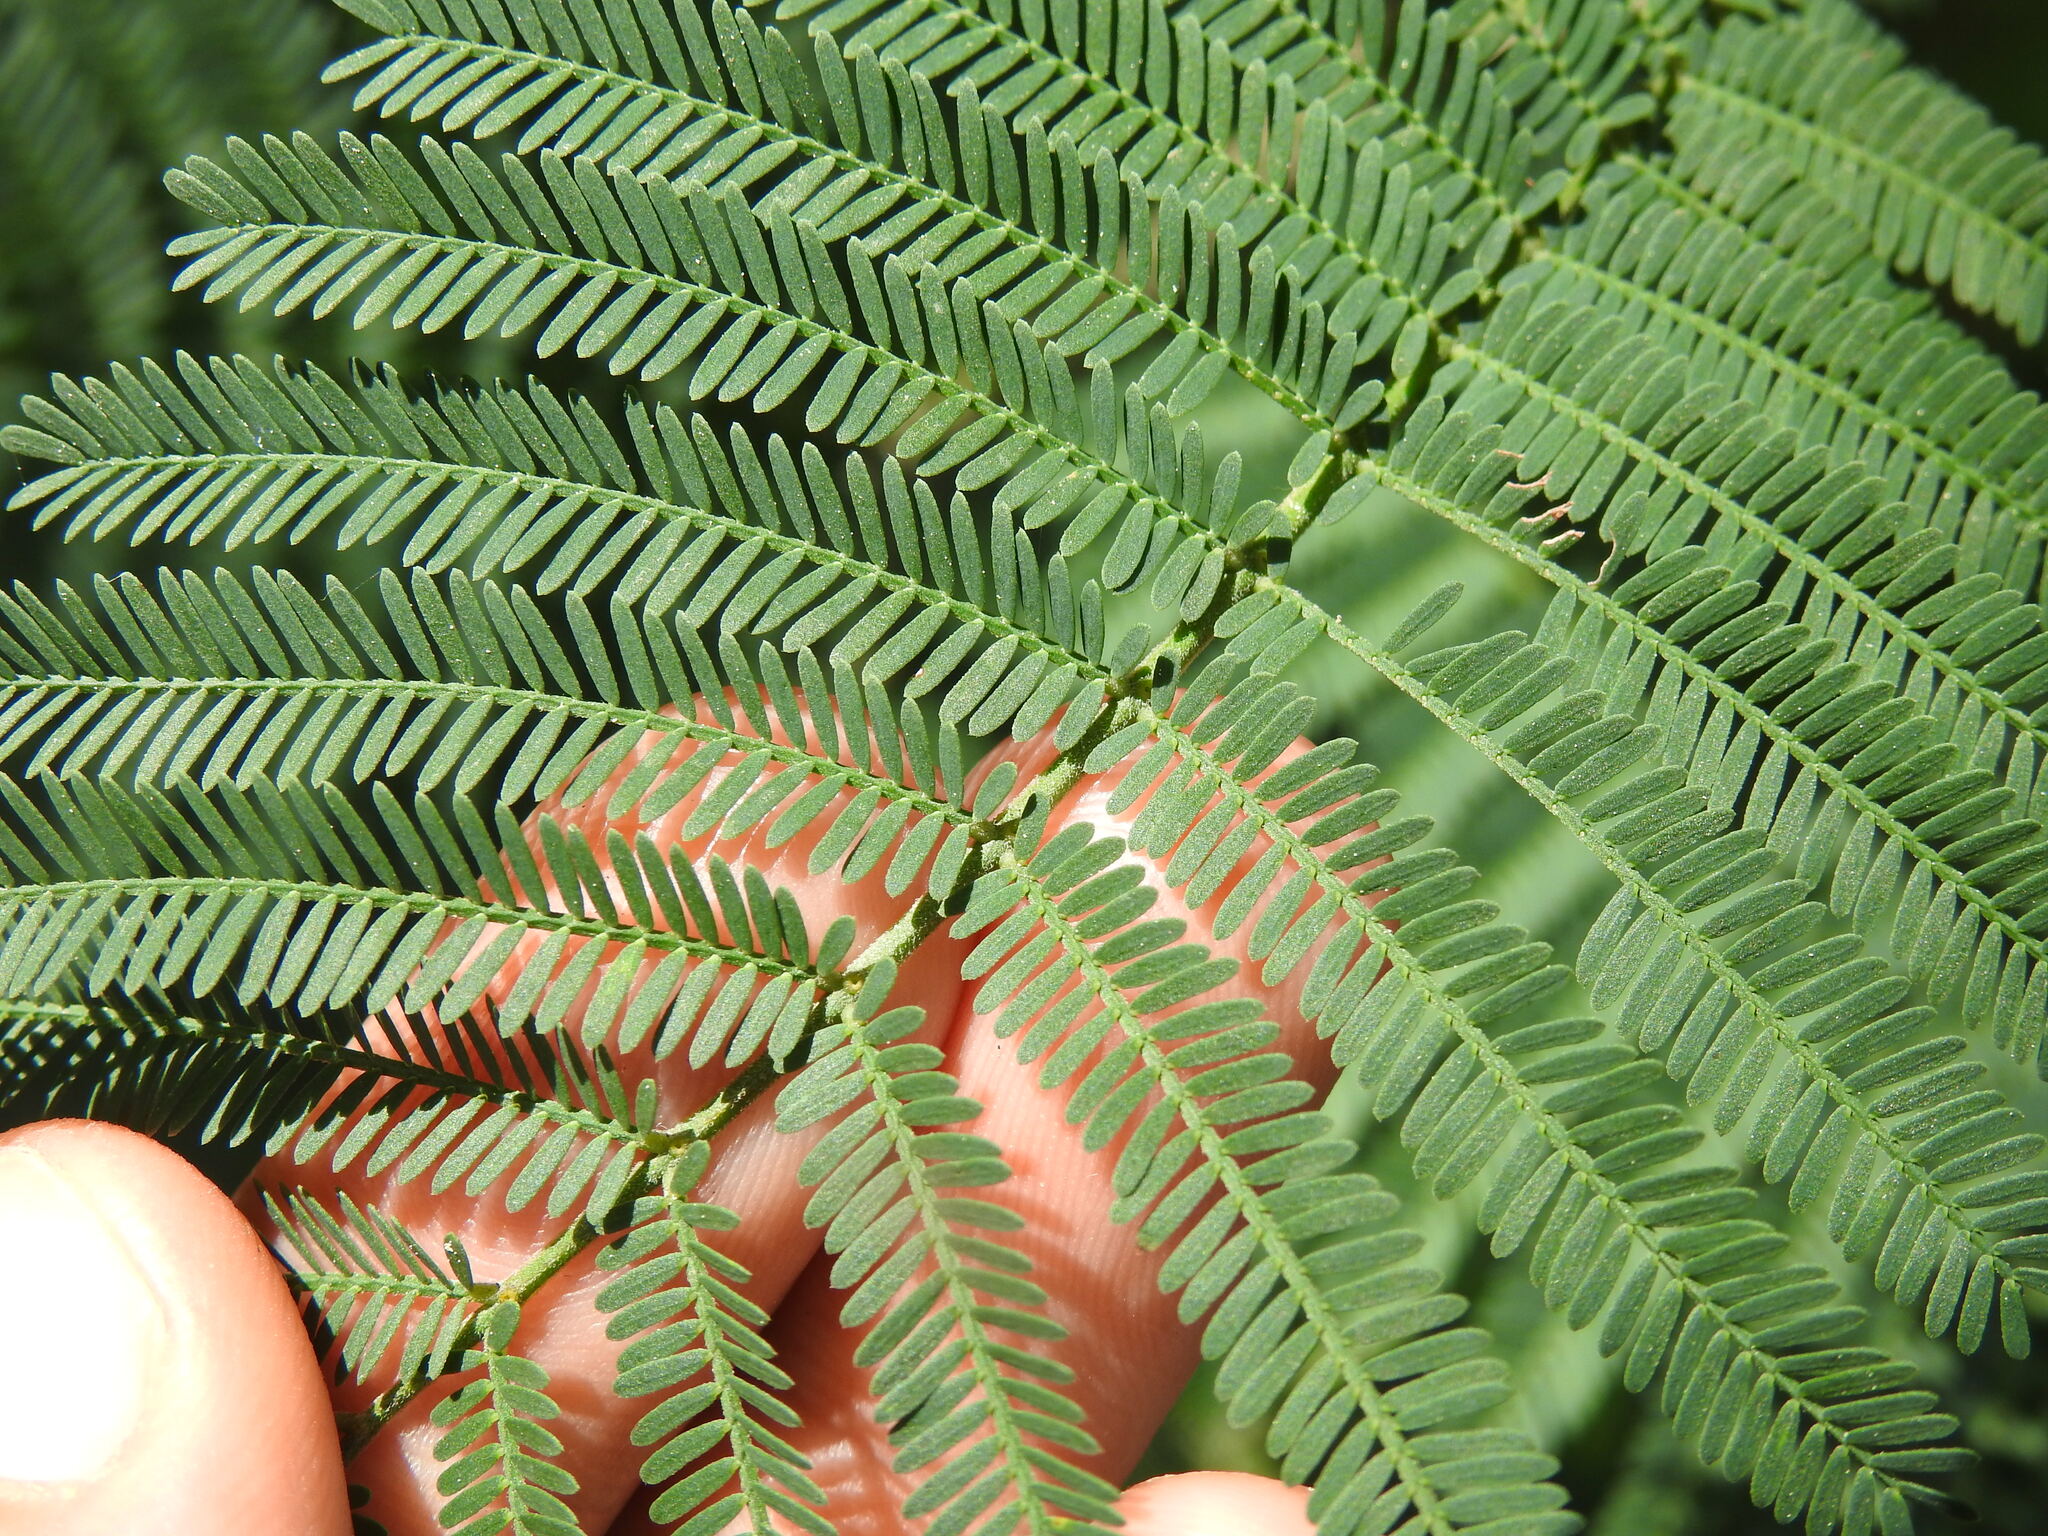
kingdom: Plantae
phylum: Tracheophyta
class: Magnoliopsida
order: Fabales
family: Fabaceae
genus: Acacia
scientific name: Acacia dealbata
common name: Silver wattle
